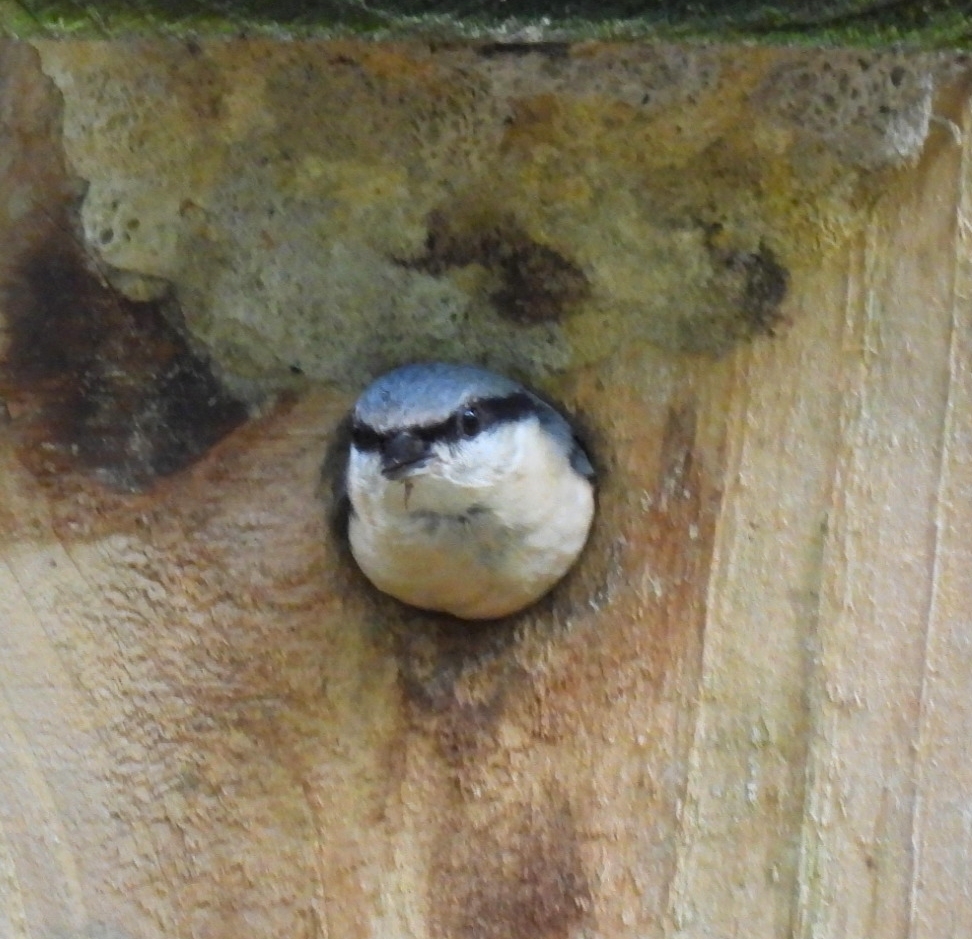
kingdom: Animalia
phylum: Chordata
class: Aves
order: Passeriformes
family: Sittidae
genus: Sitta
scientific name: Sitta europaea
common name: Eurasian nuthatch
